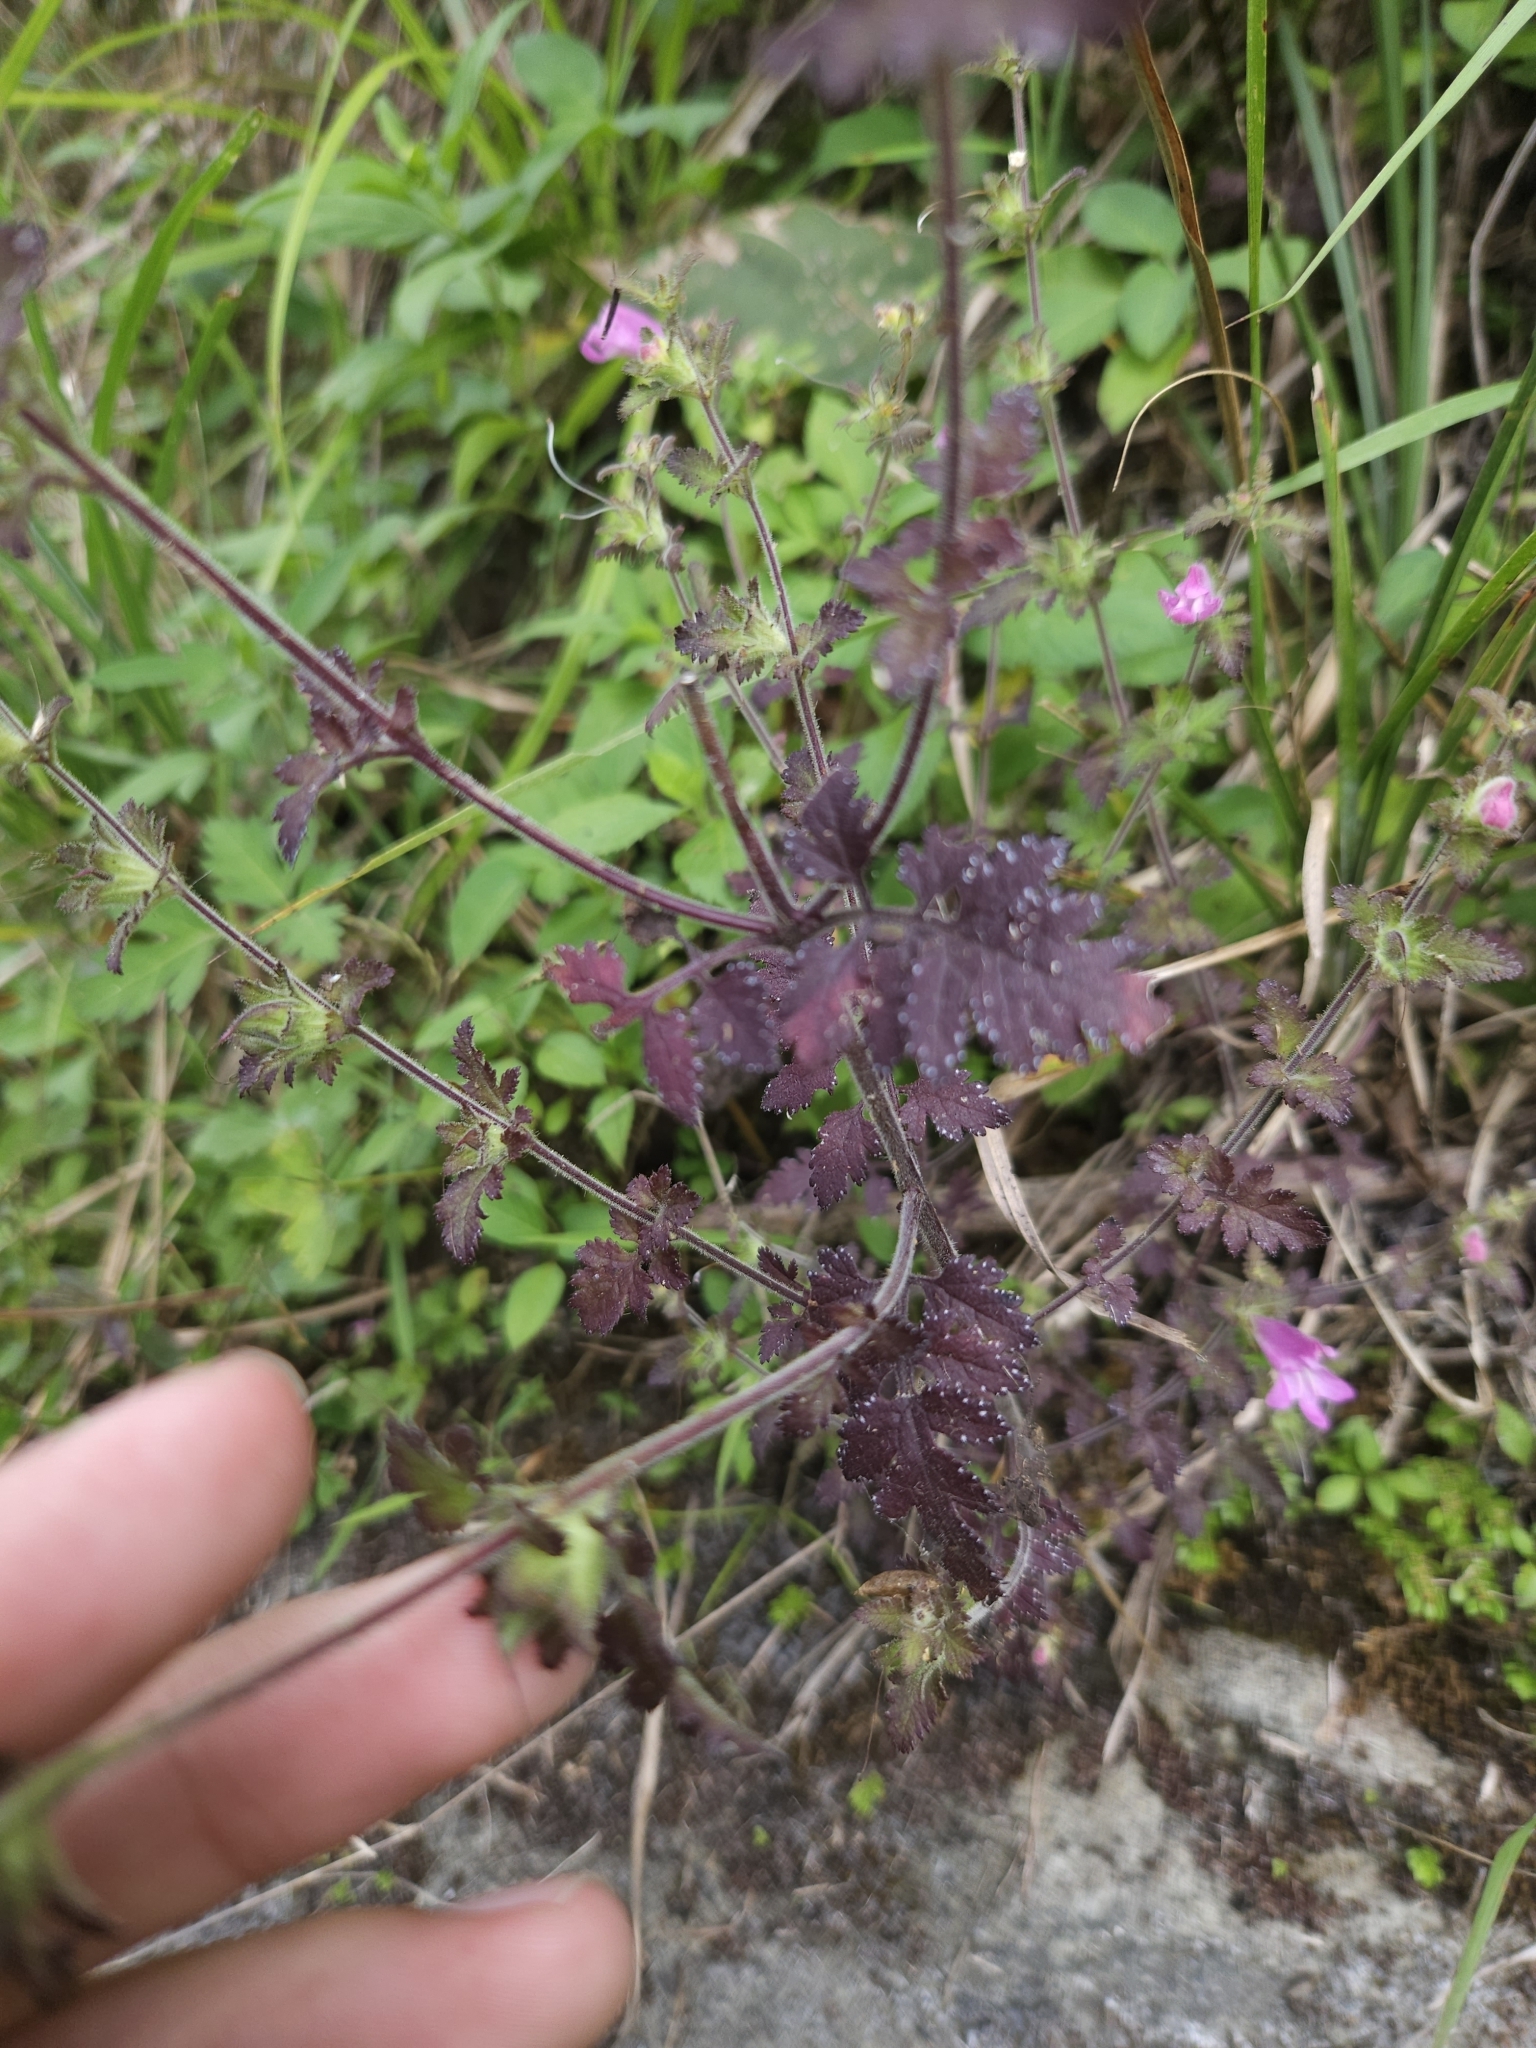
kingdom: Plantae
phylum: Tracheophyta
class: Magnoliopsida
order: Lamiales
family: Orobanchaceae
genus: Phtheirospermum
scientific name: Phtheirospermum japonicum
